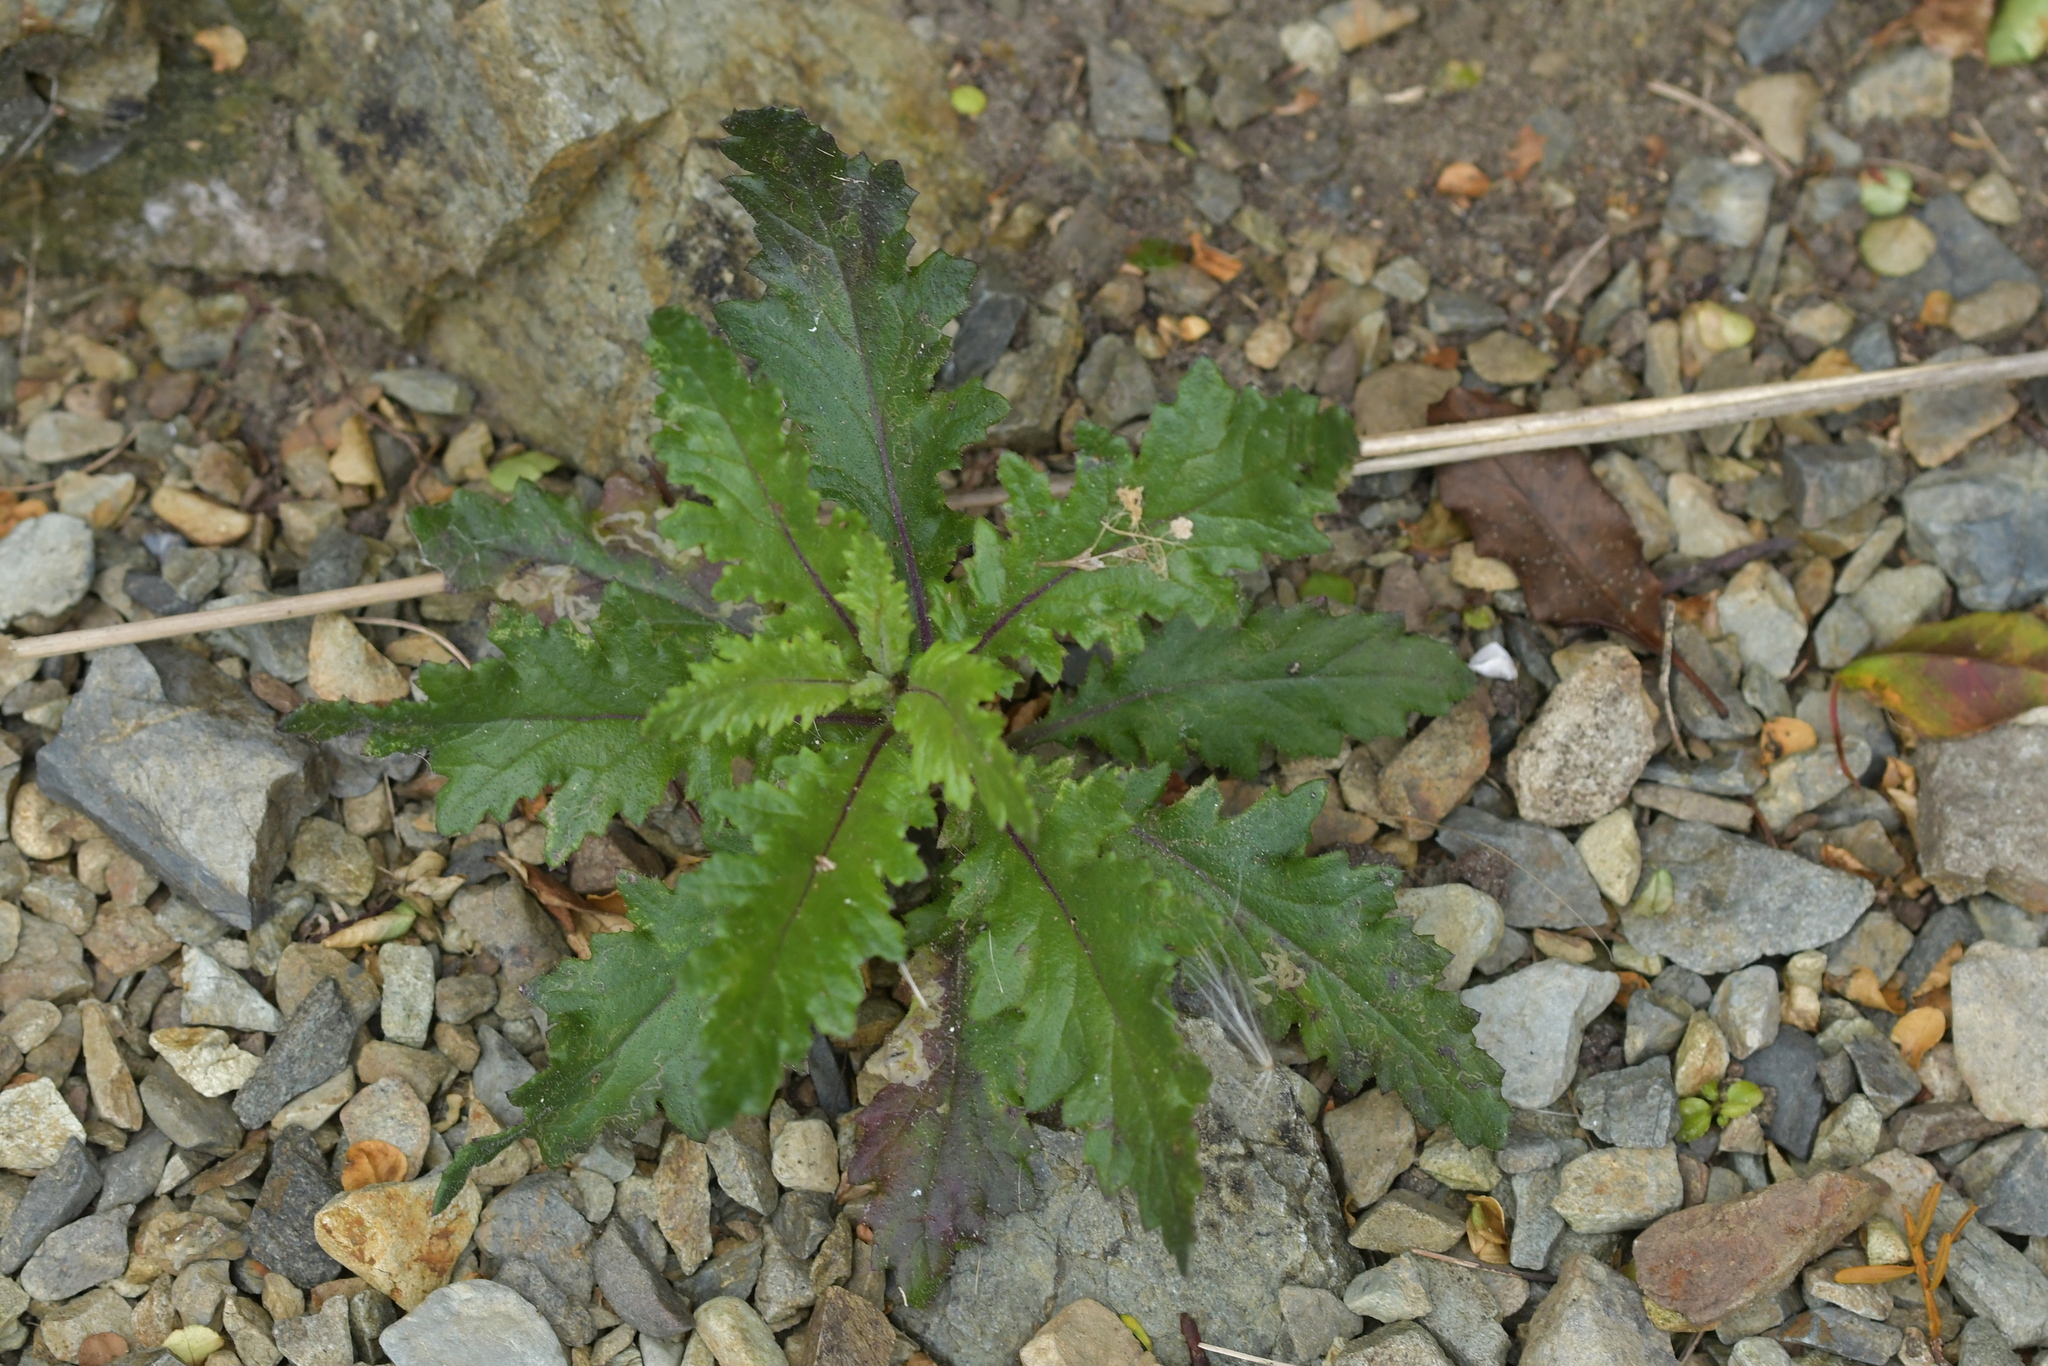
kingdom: Plantae
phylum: Tracheophyta
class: Magnoliopsida
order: Asterales
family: Asteraceae
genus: Senecio
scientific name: Senecio biserratus
